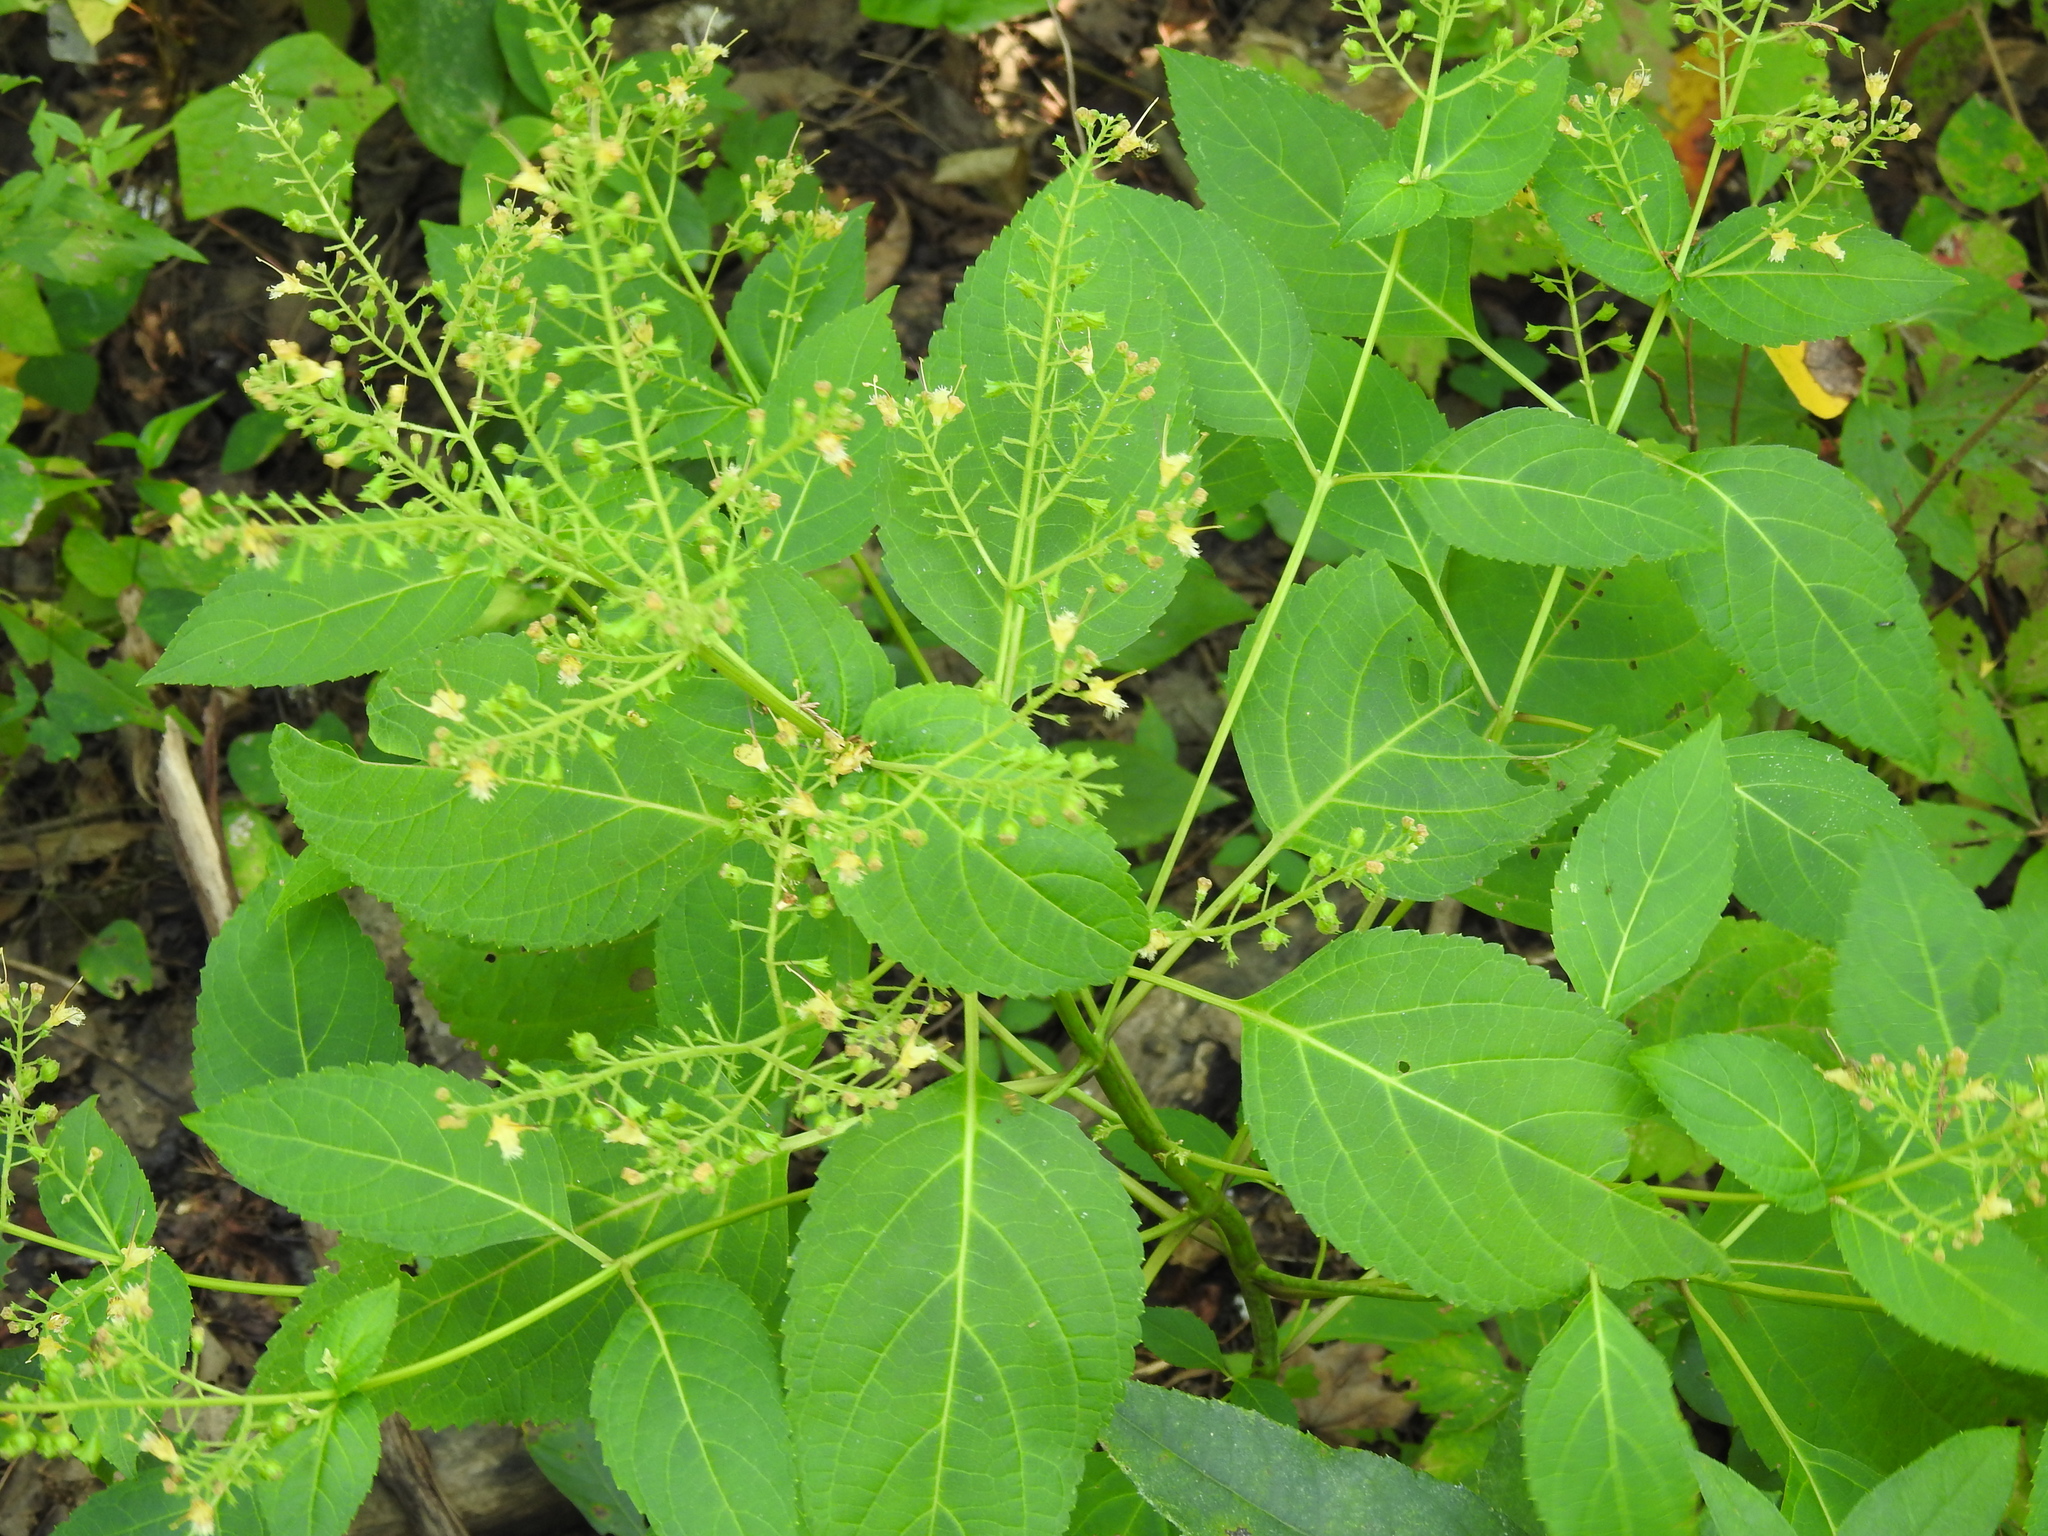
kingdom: Plantae
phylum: Tracheophyta
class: Magnoliopsida
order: Lamiales
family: Lamiaceae
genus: Collinsonia
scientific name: Collinsonia canadensis
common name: Northern horsebalm
